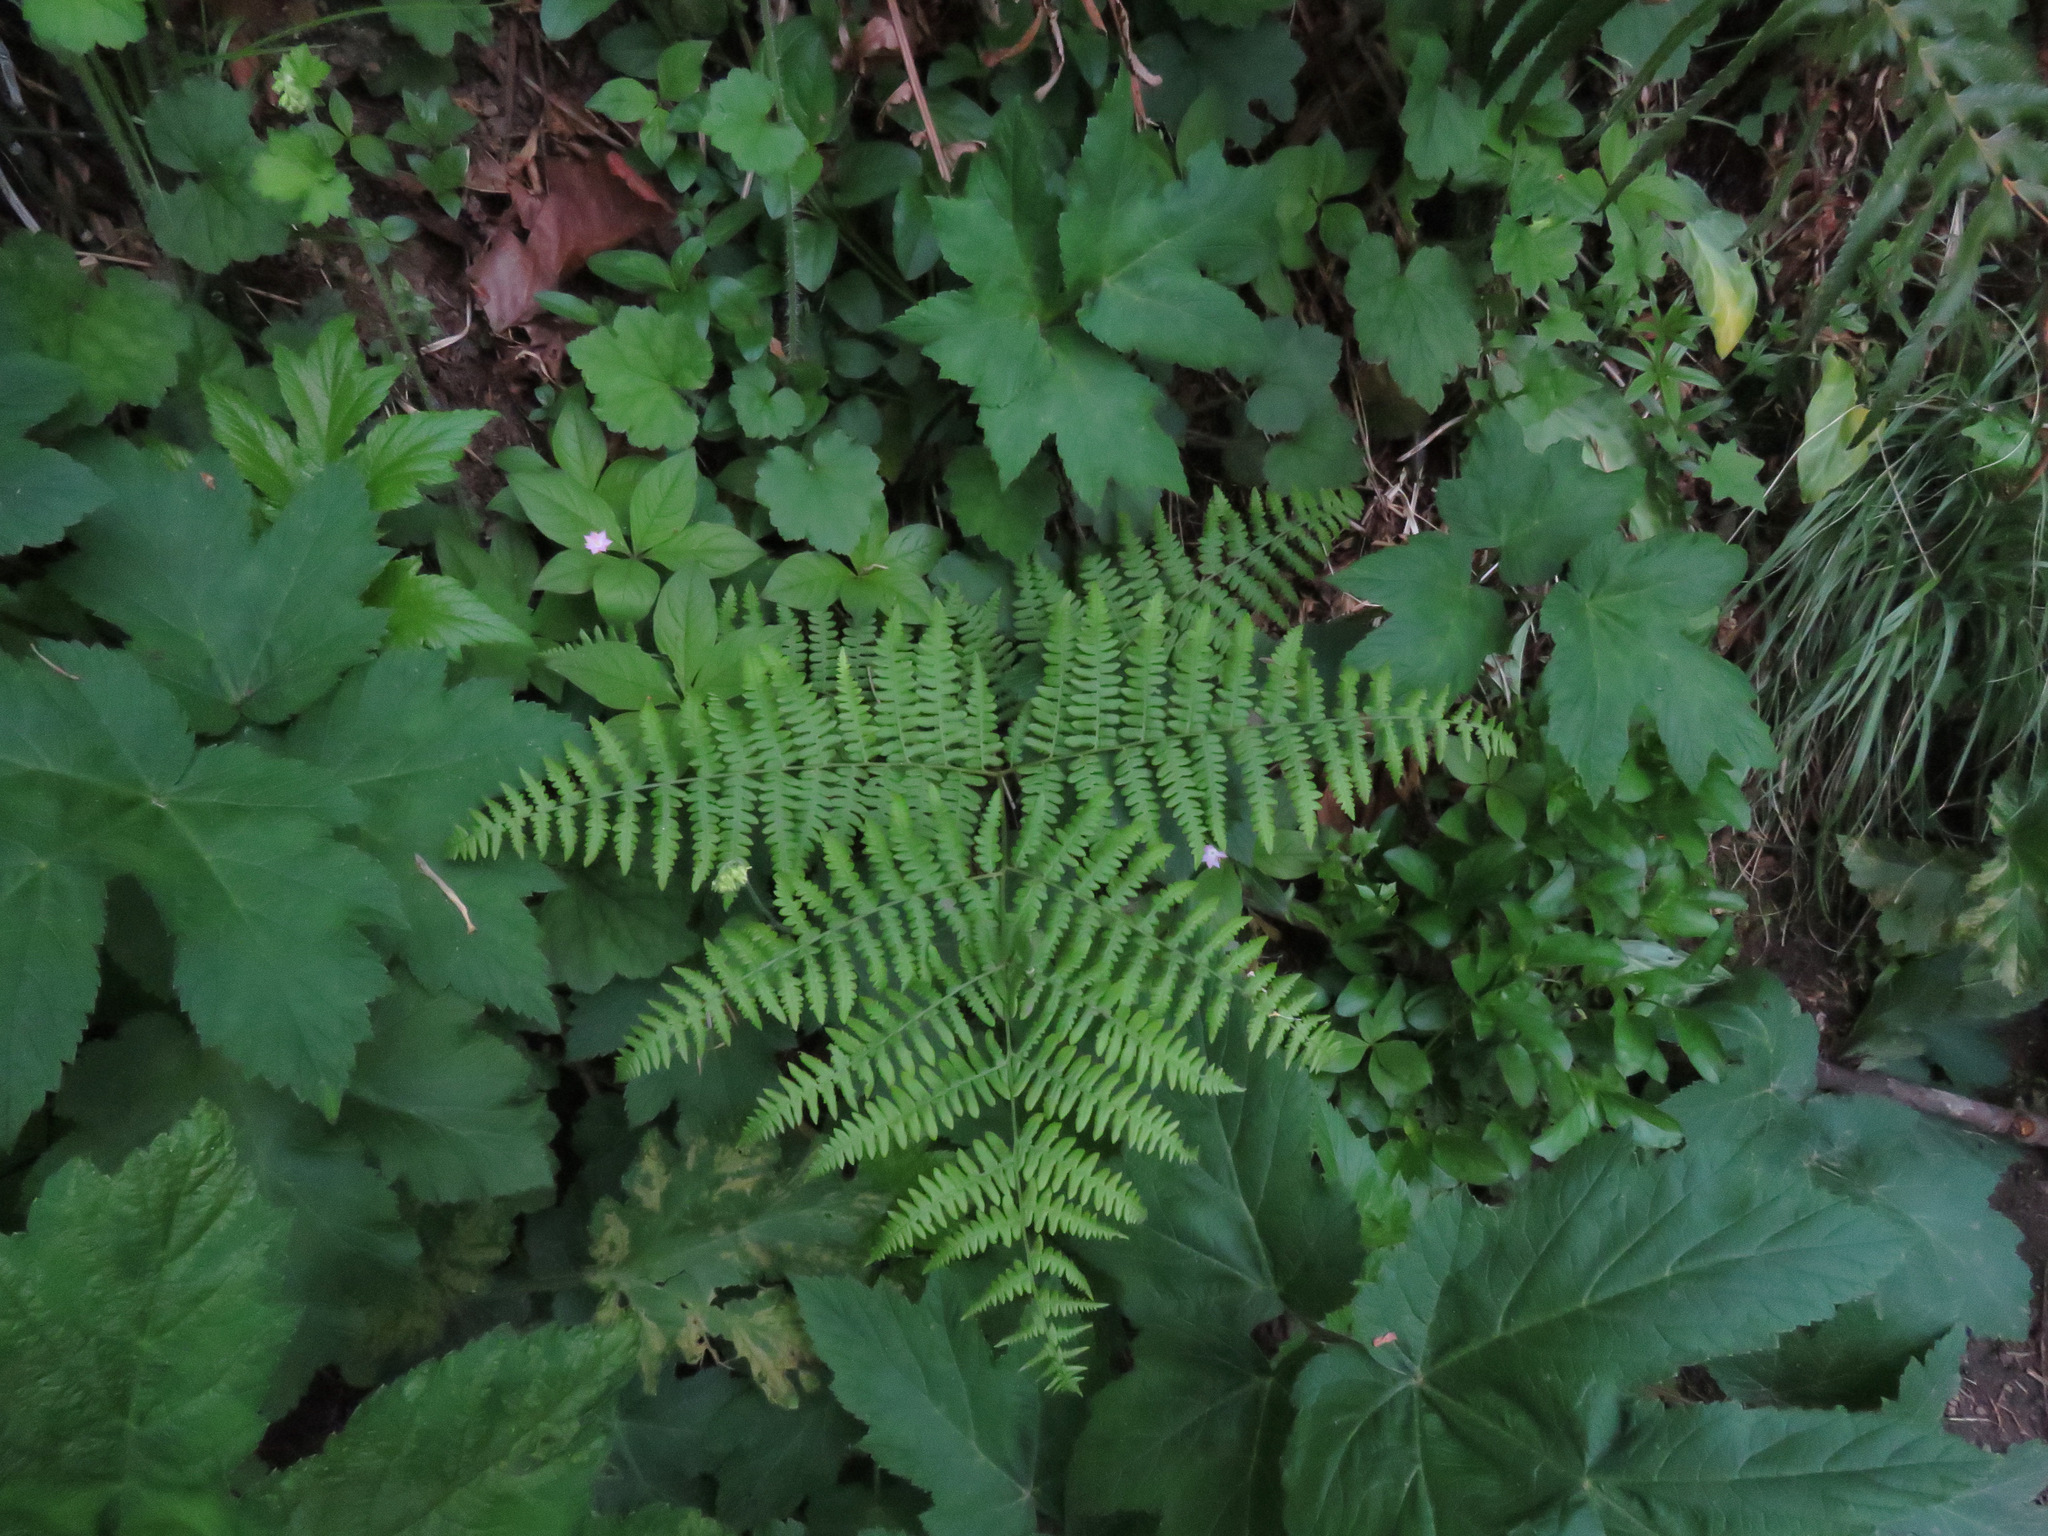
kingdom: Plantae
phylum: Tracheophyta
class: Polypodiopsida
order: Polypodiales
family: Dennstaedtiaceae
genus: Pteridium
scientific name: Pteridium aquilinum
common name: Bracken
